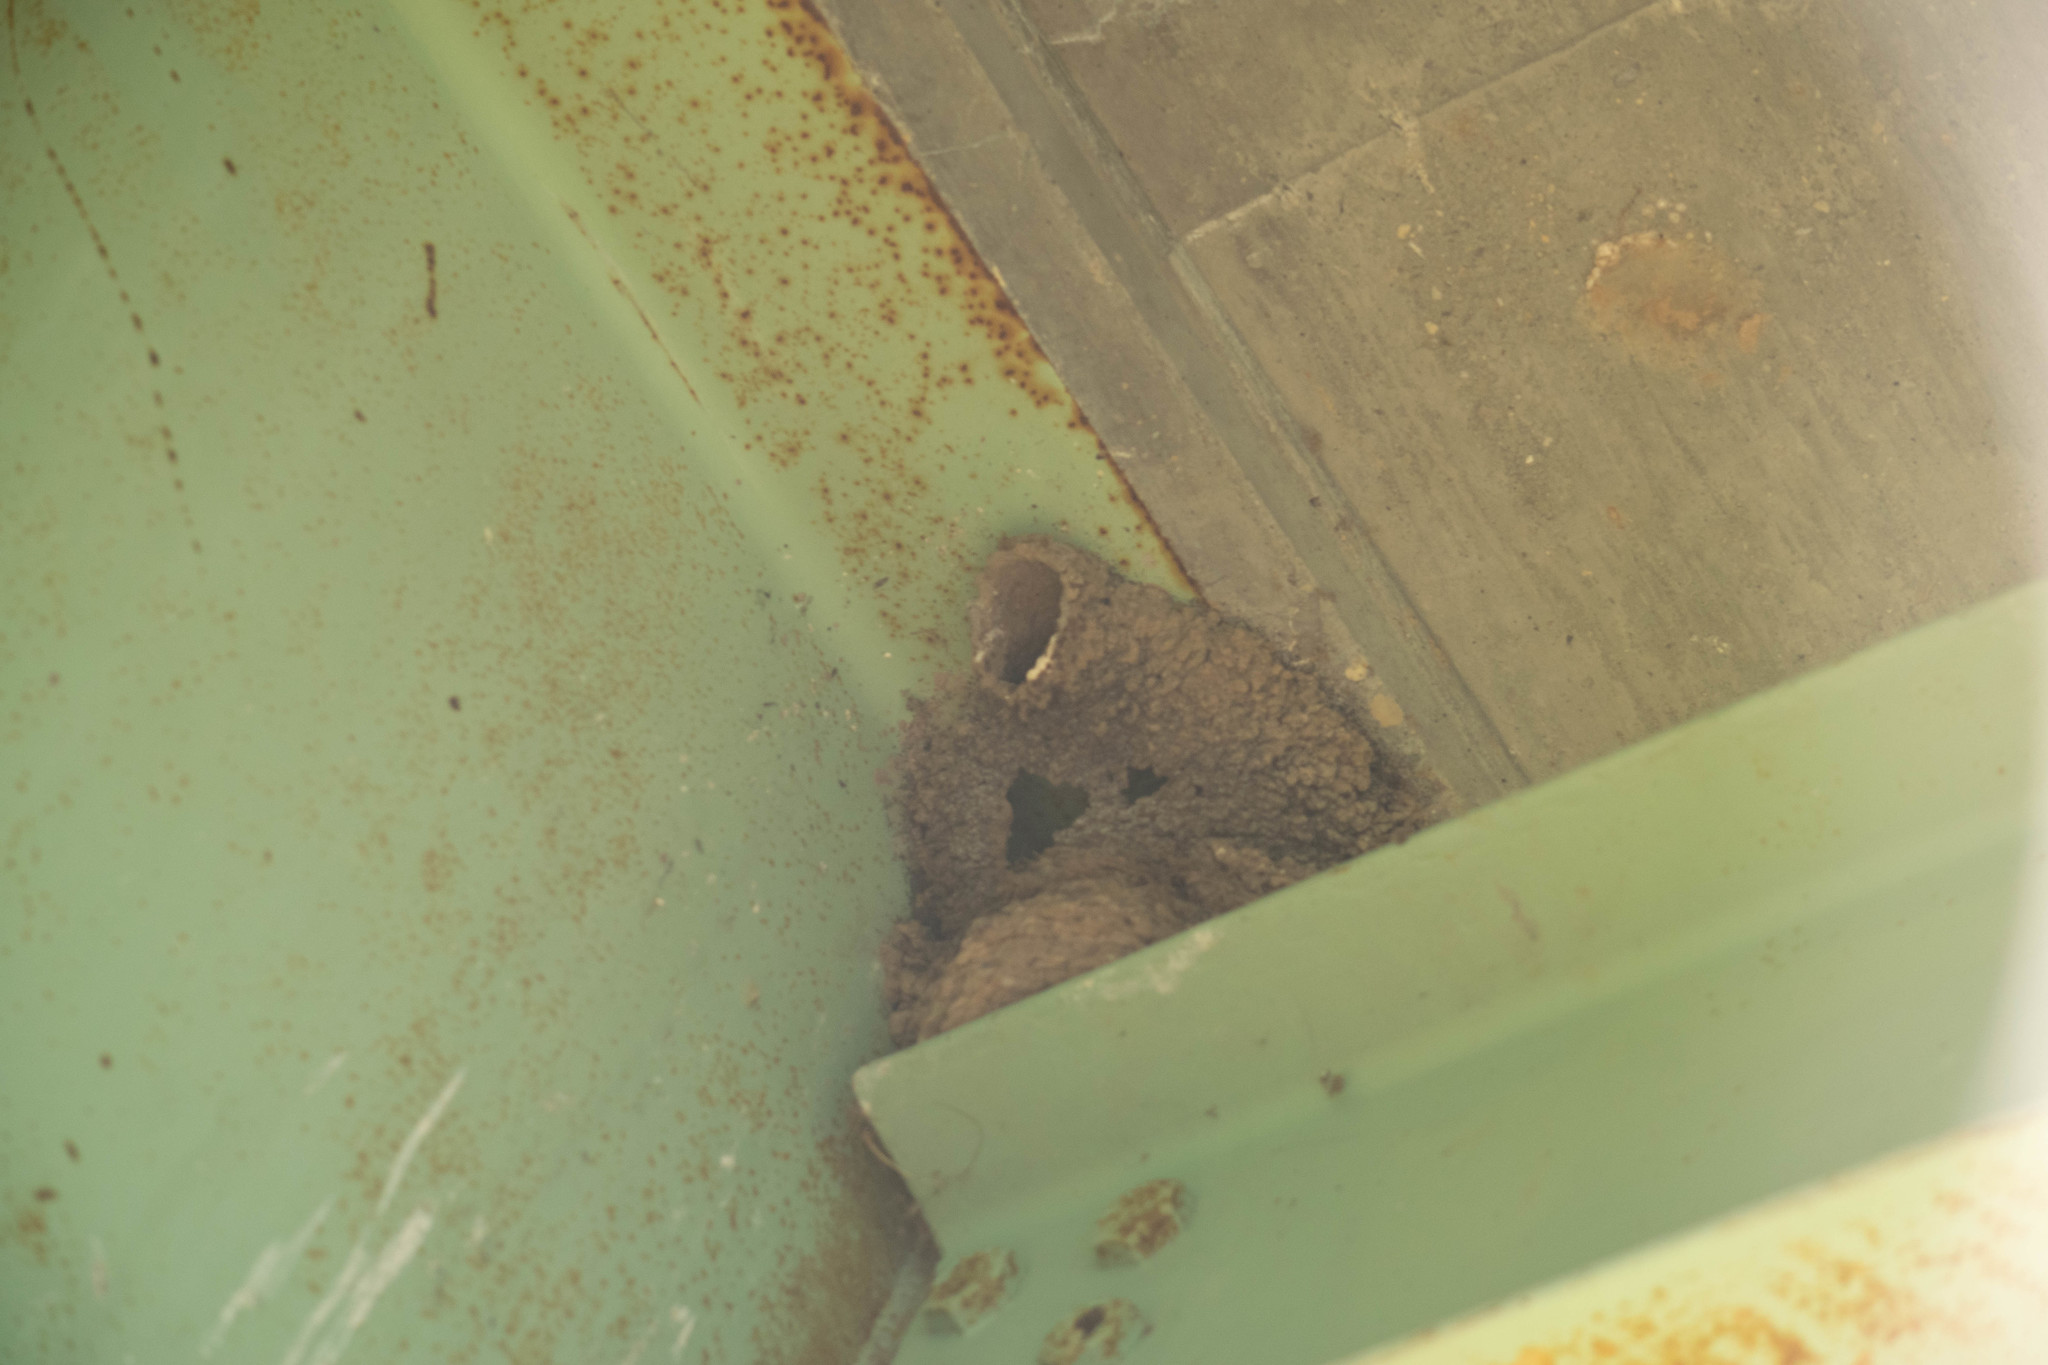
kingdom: Animalia
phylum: Chordata
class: Aves
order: Passeriformes
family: Hirundinidae
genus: Petrochelidon
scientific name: Petrochelidon pyrrhonota
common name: American cliff swallow
